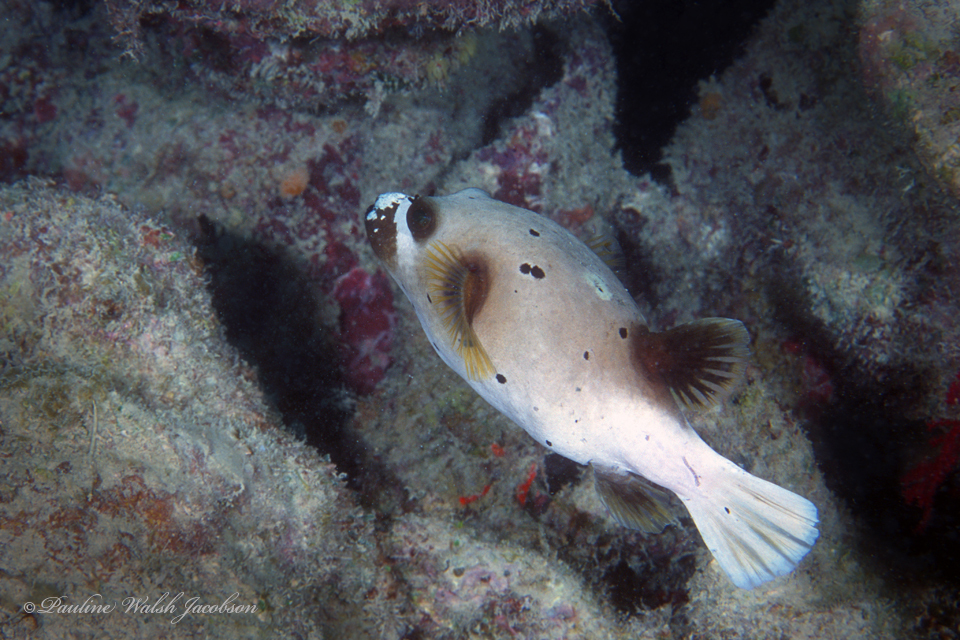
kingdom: Animalia
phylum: Chordata
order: Tetraodontiformes
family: Tetraodontidae
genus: Arothron
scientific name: Arothron nigropunctatus
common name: Black spotted blow fish
